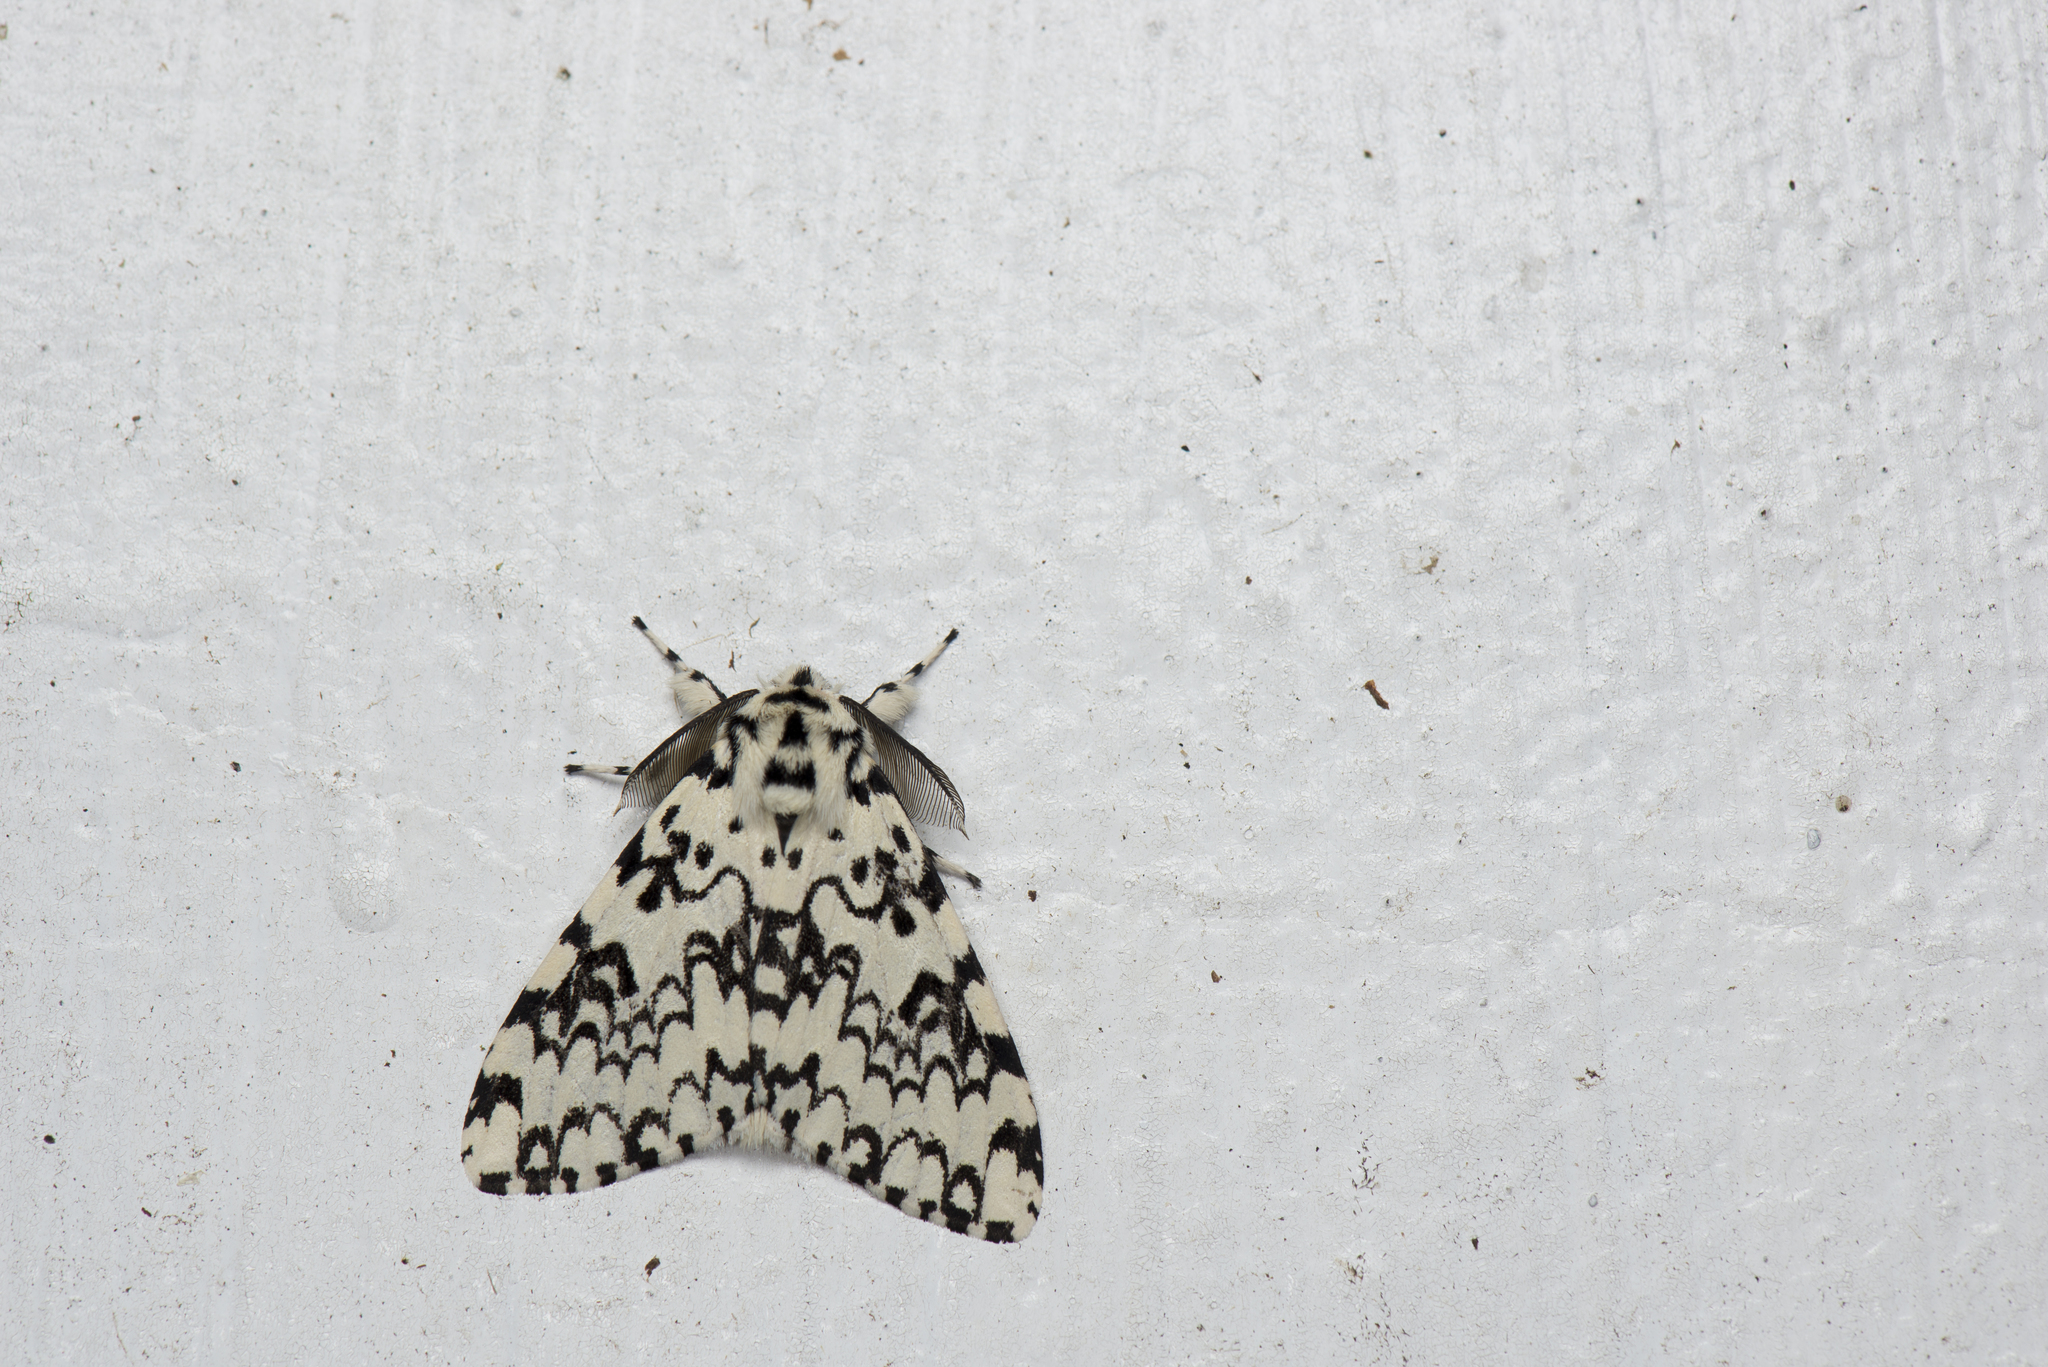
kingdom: Animalia
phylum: Arthropoda
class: Insecta
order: Lepidoptera
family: Erebidae
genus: Lymantria
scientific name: Lymantria concolor
